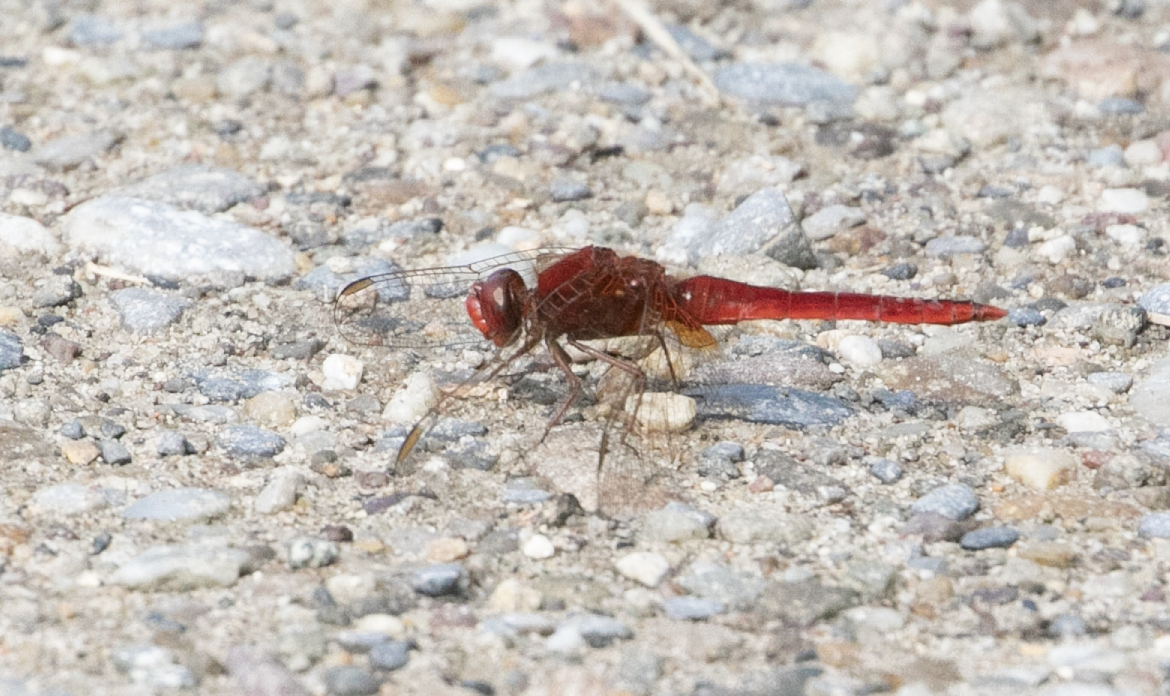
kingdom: Animalia
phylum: Arthropoda
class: Insecta
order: Odonata
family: Libellulidae
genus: Crocothemis
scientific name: Crocothemis erythraea
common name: Scarlet dragonfly
